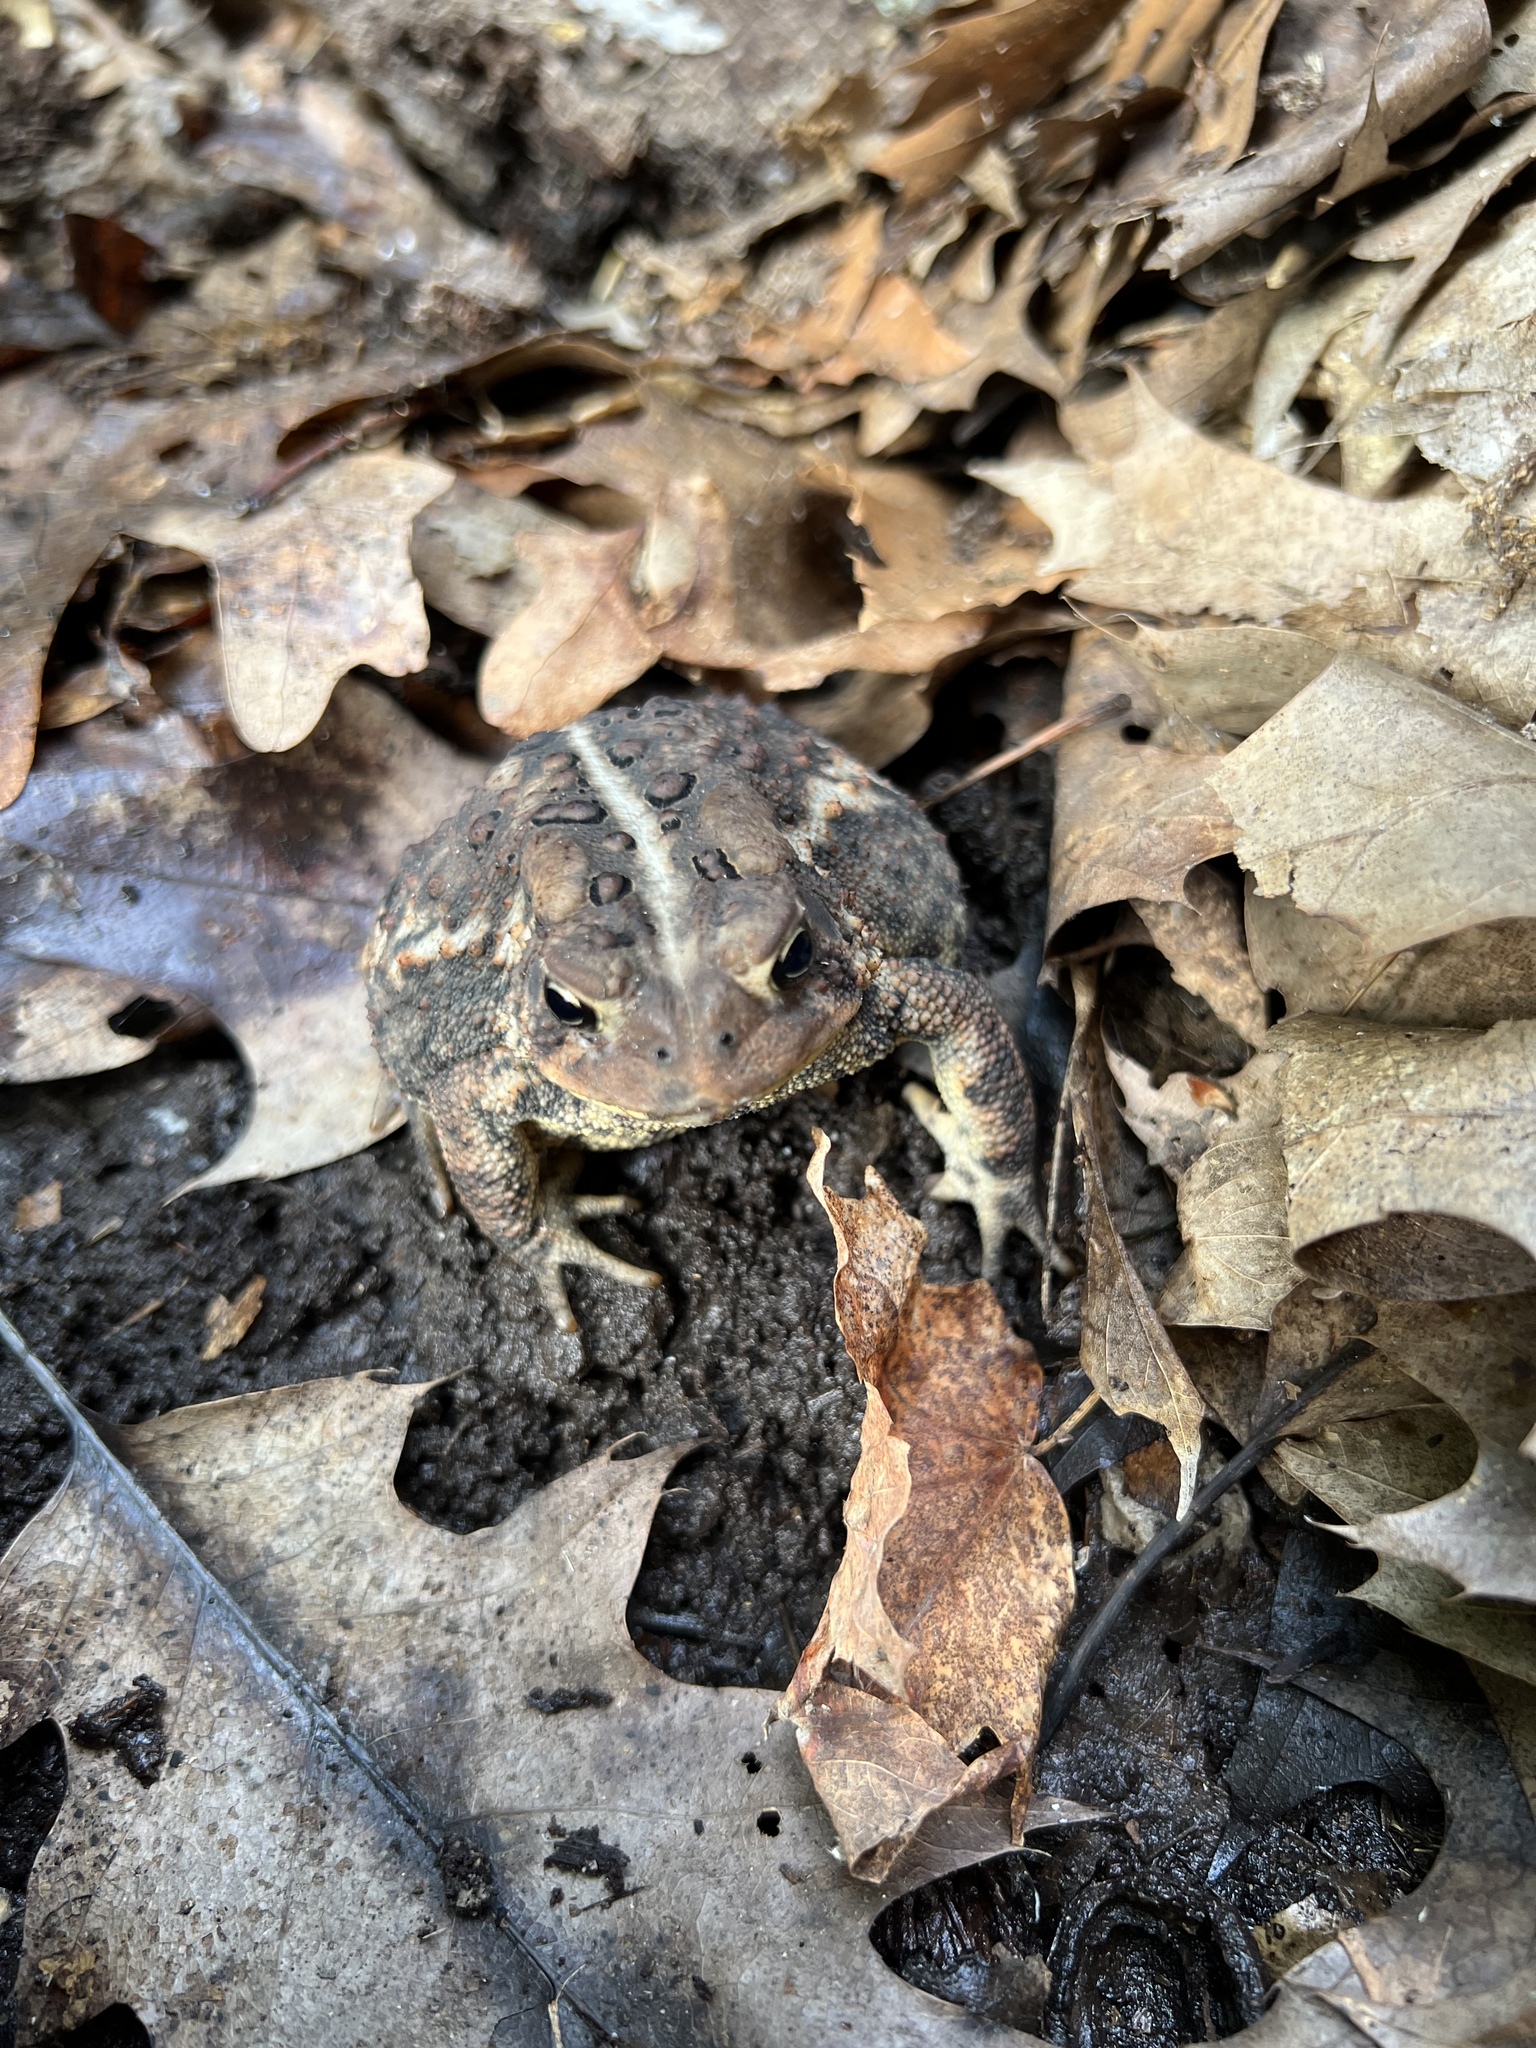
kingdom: Animalia
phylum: Chordata
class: Amphibia
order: Anura
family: Bufonidae
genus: Anaxyrus
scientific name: Anaxyrus americanus
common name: American toad
